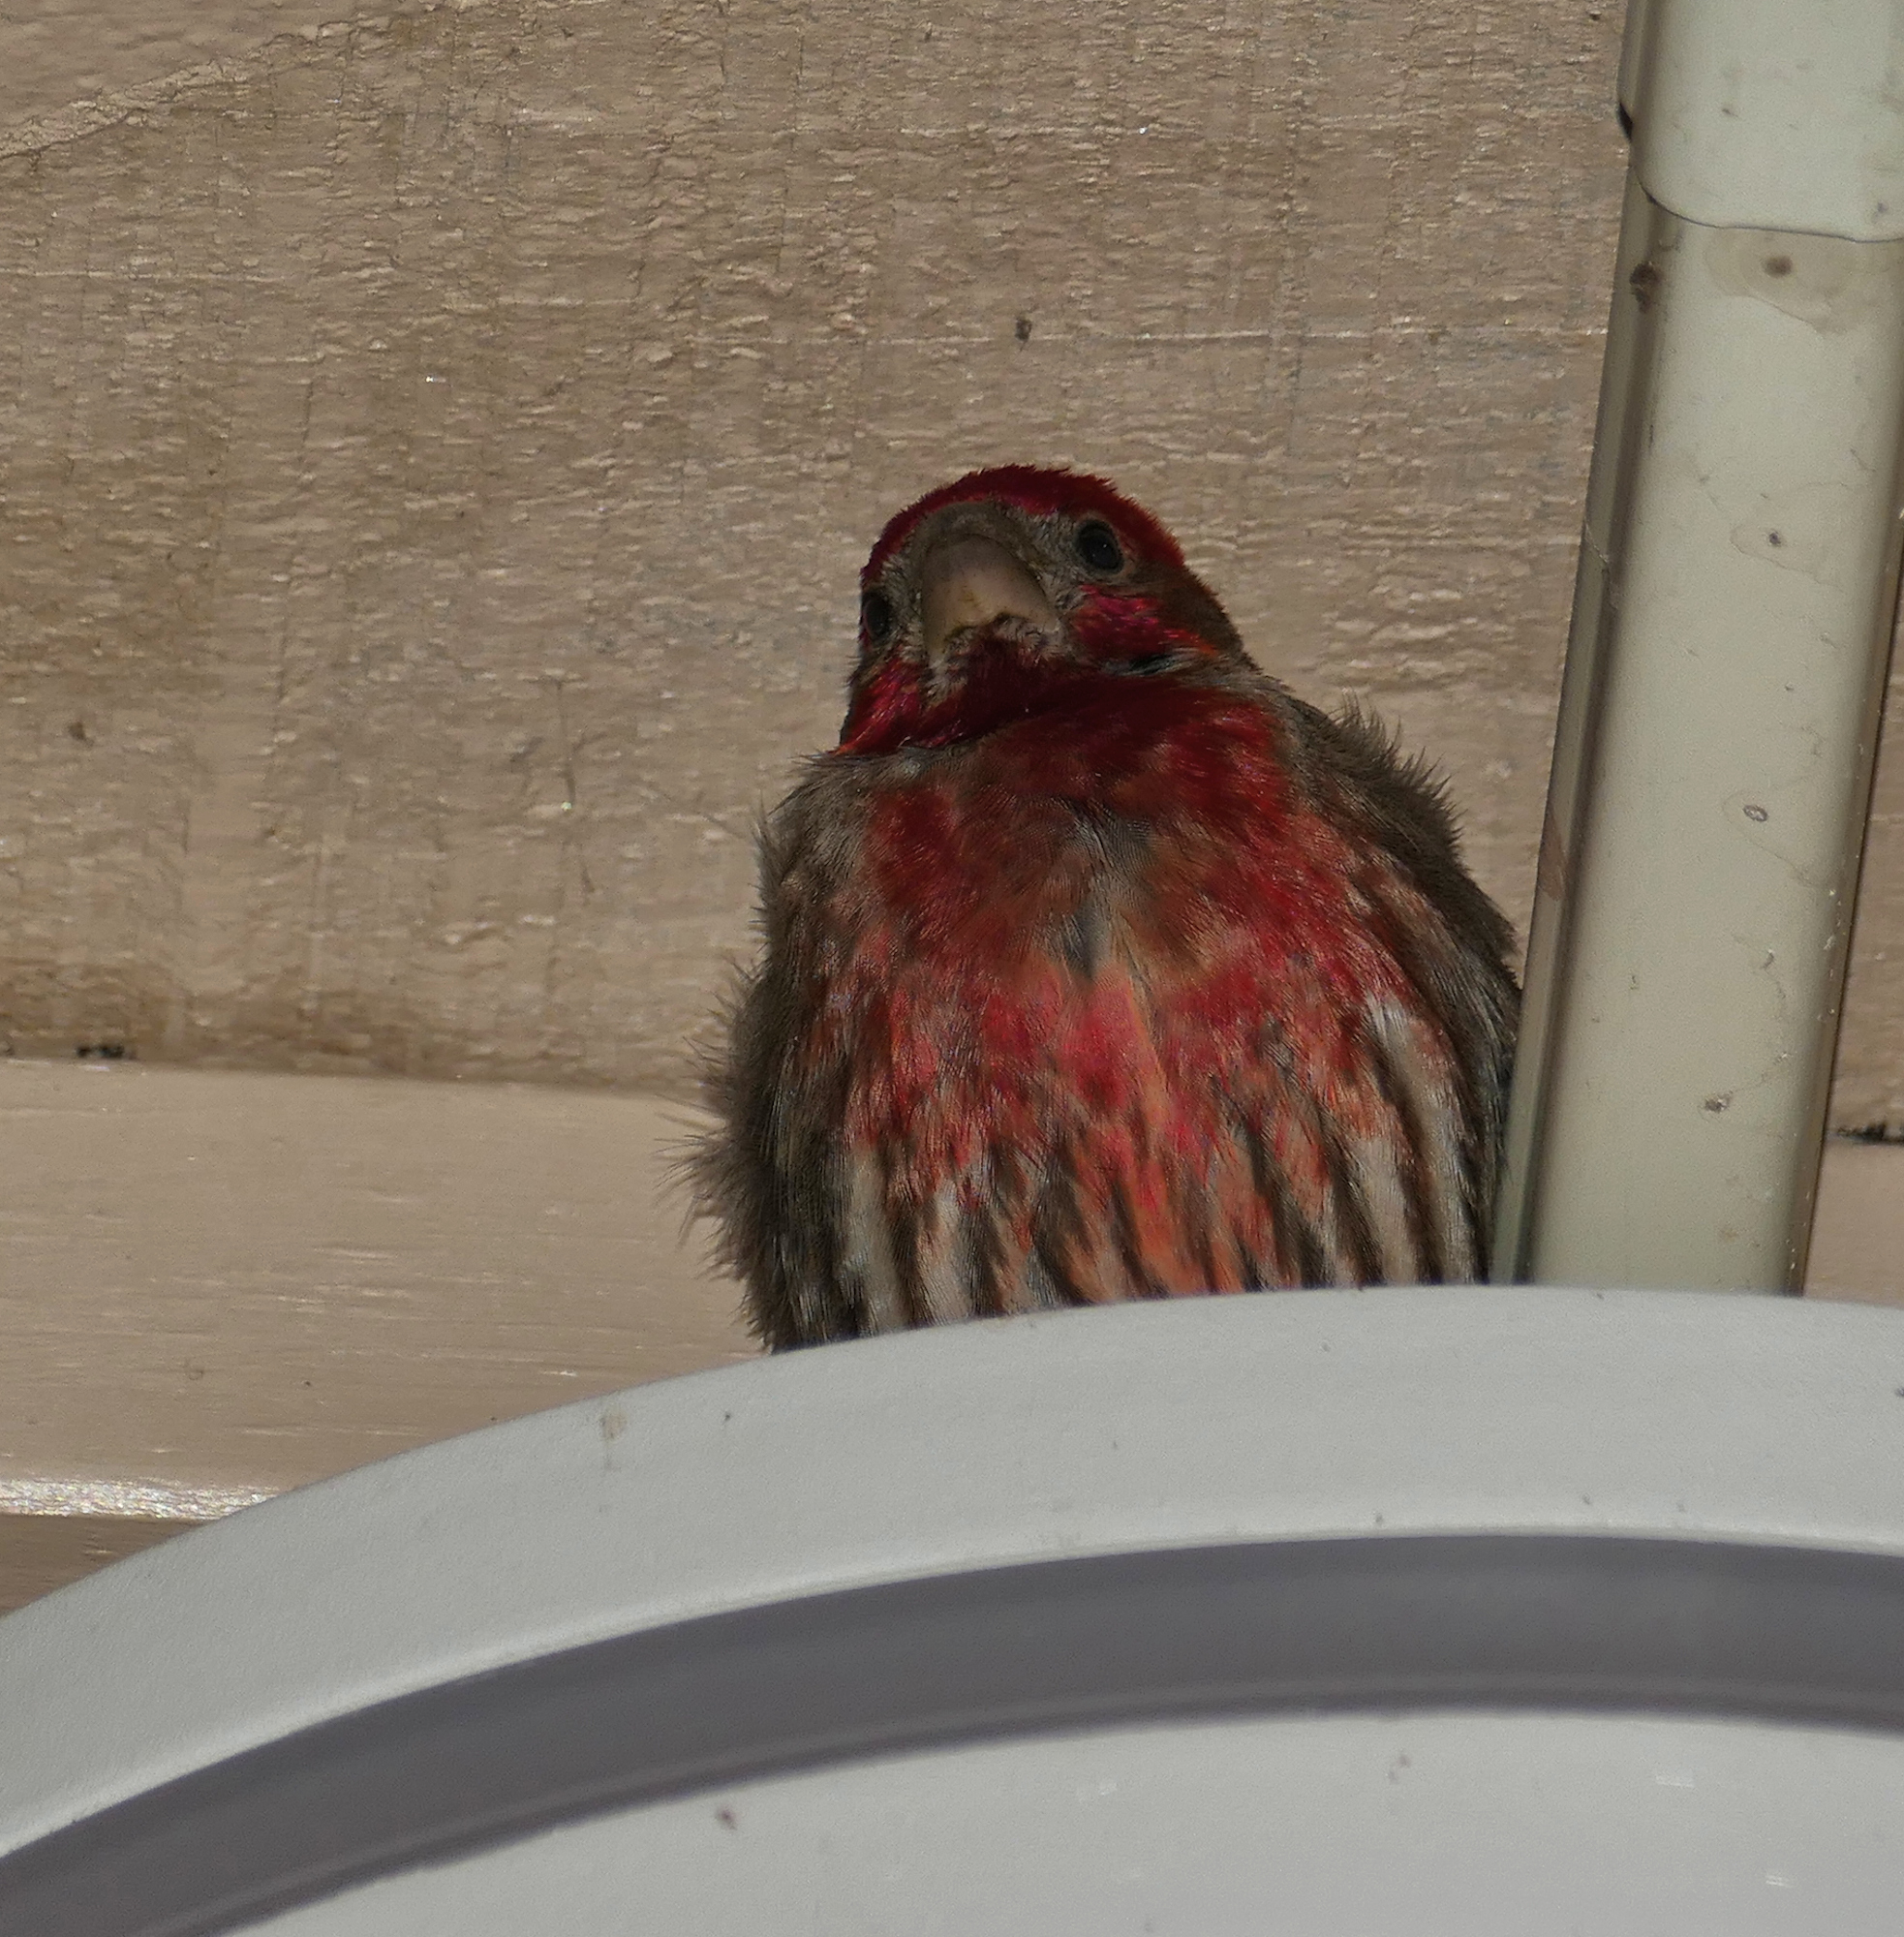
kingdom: Animalia
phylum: Chordata
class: Aves
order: Passeriformes
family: Fringillidae
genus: Haemorhous
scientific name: Haemorhous mexicanus
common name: House finch
